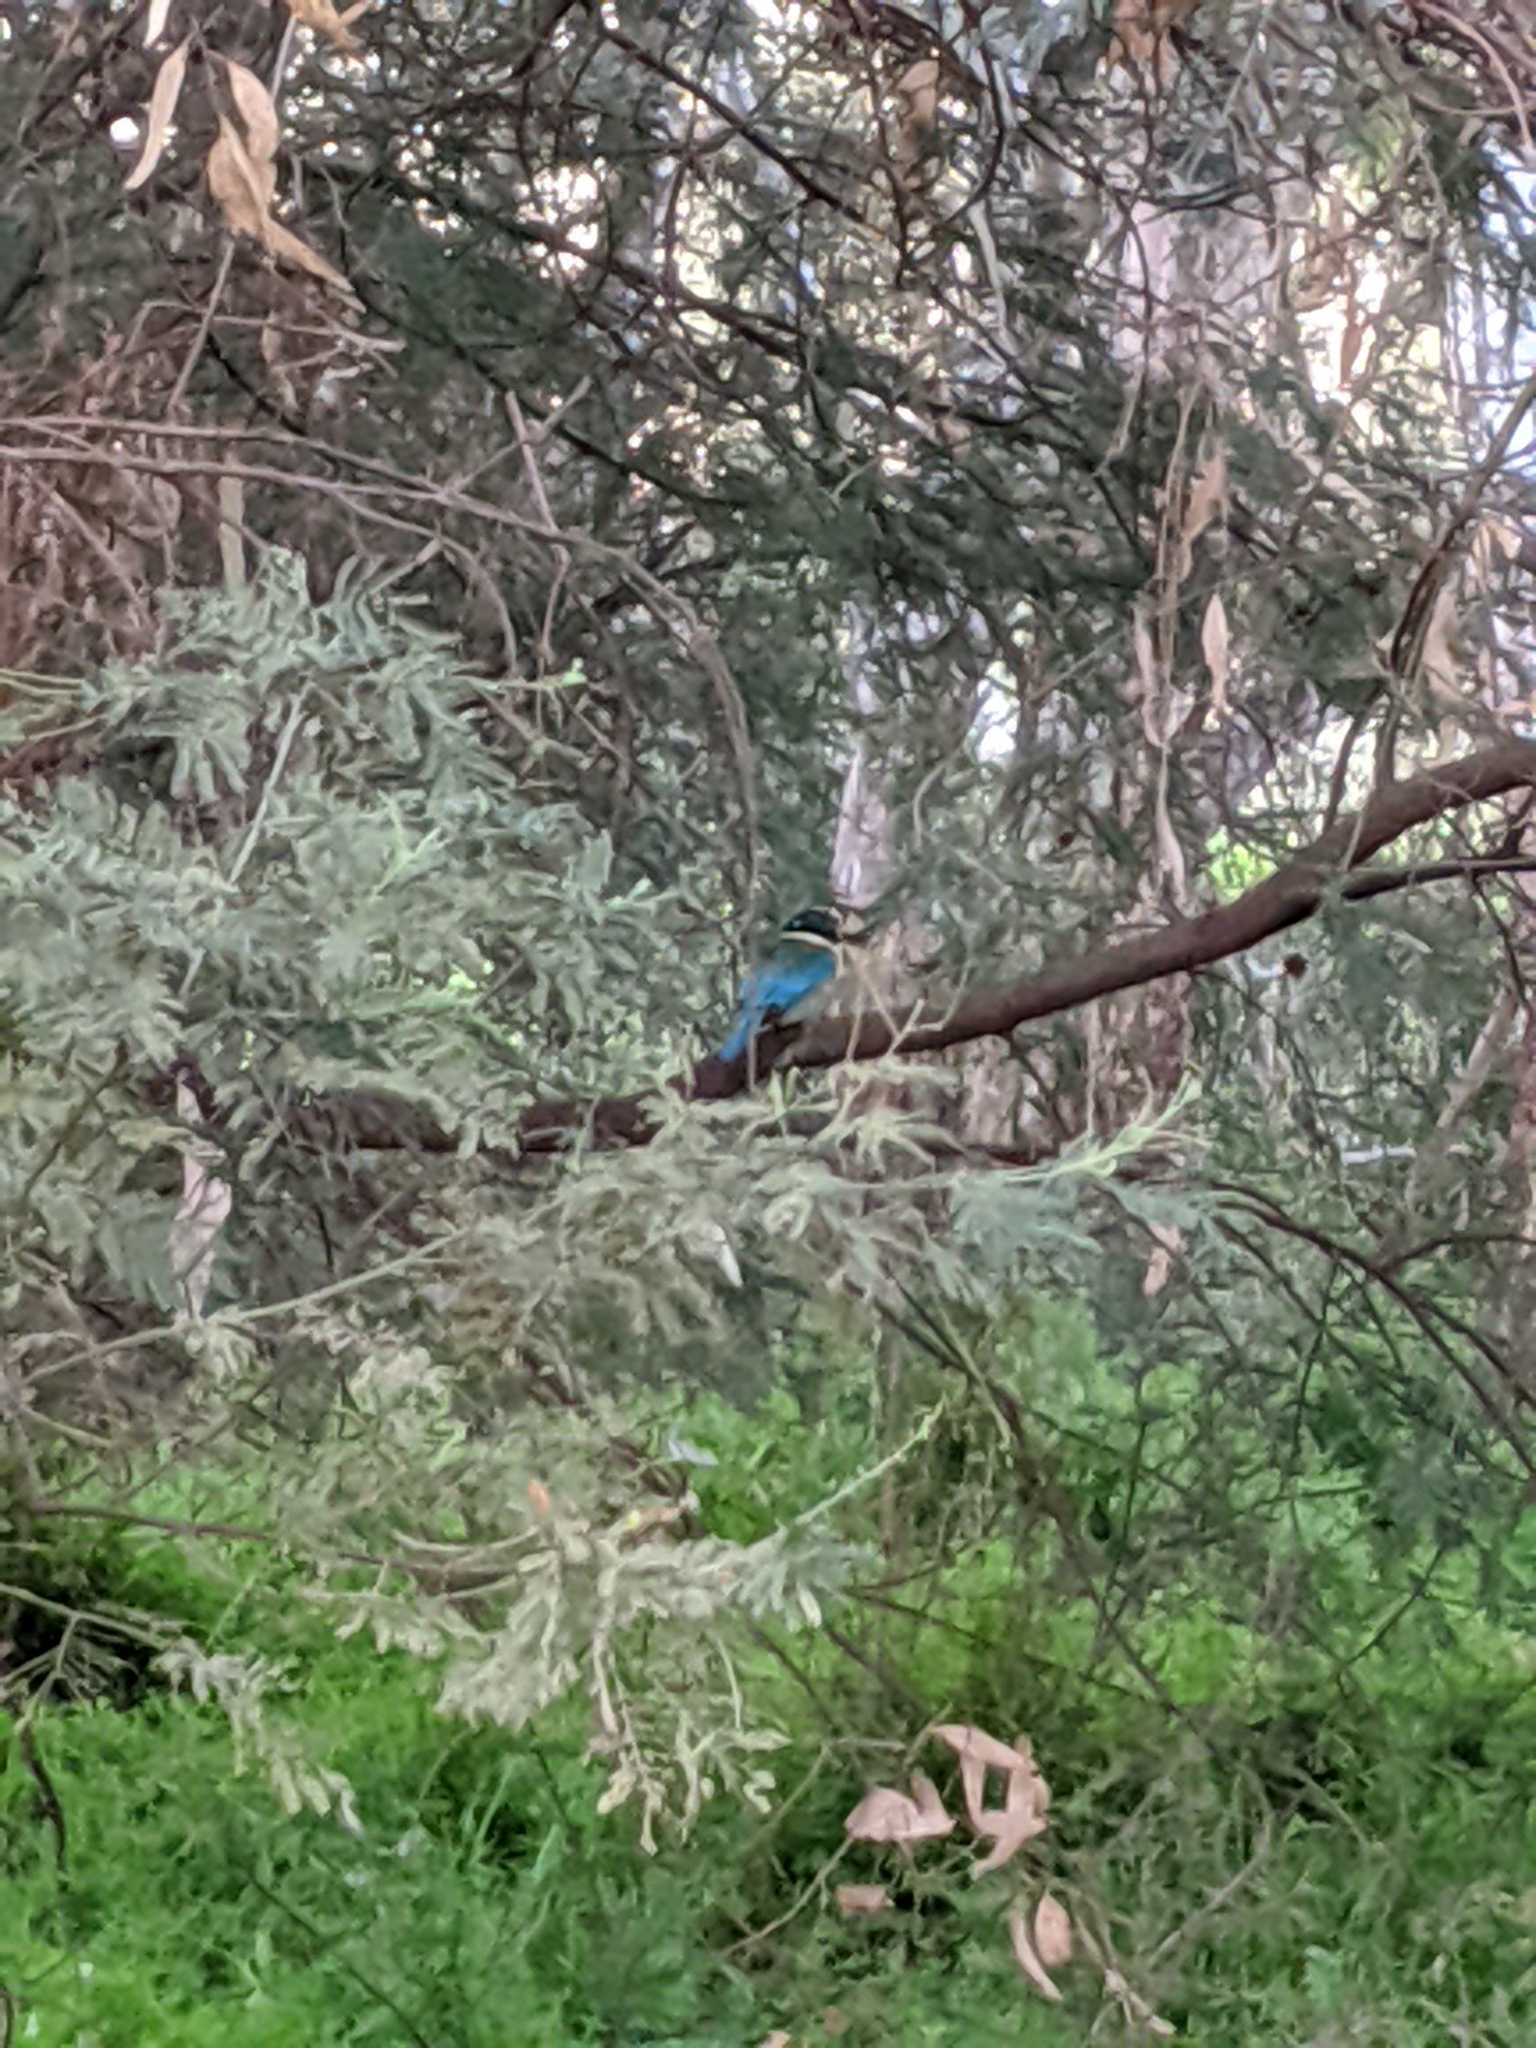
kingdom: Animalia
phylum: Chordata
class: Aves
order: Coraciiformes
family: Alcedinidae
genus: Todiramphus
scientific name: Todiramphus sanctus
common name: Sacred kingfisher
